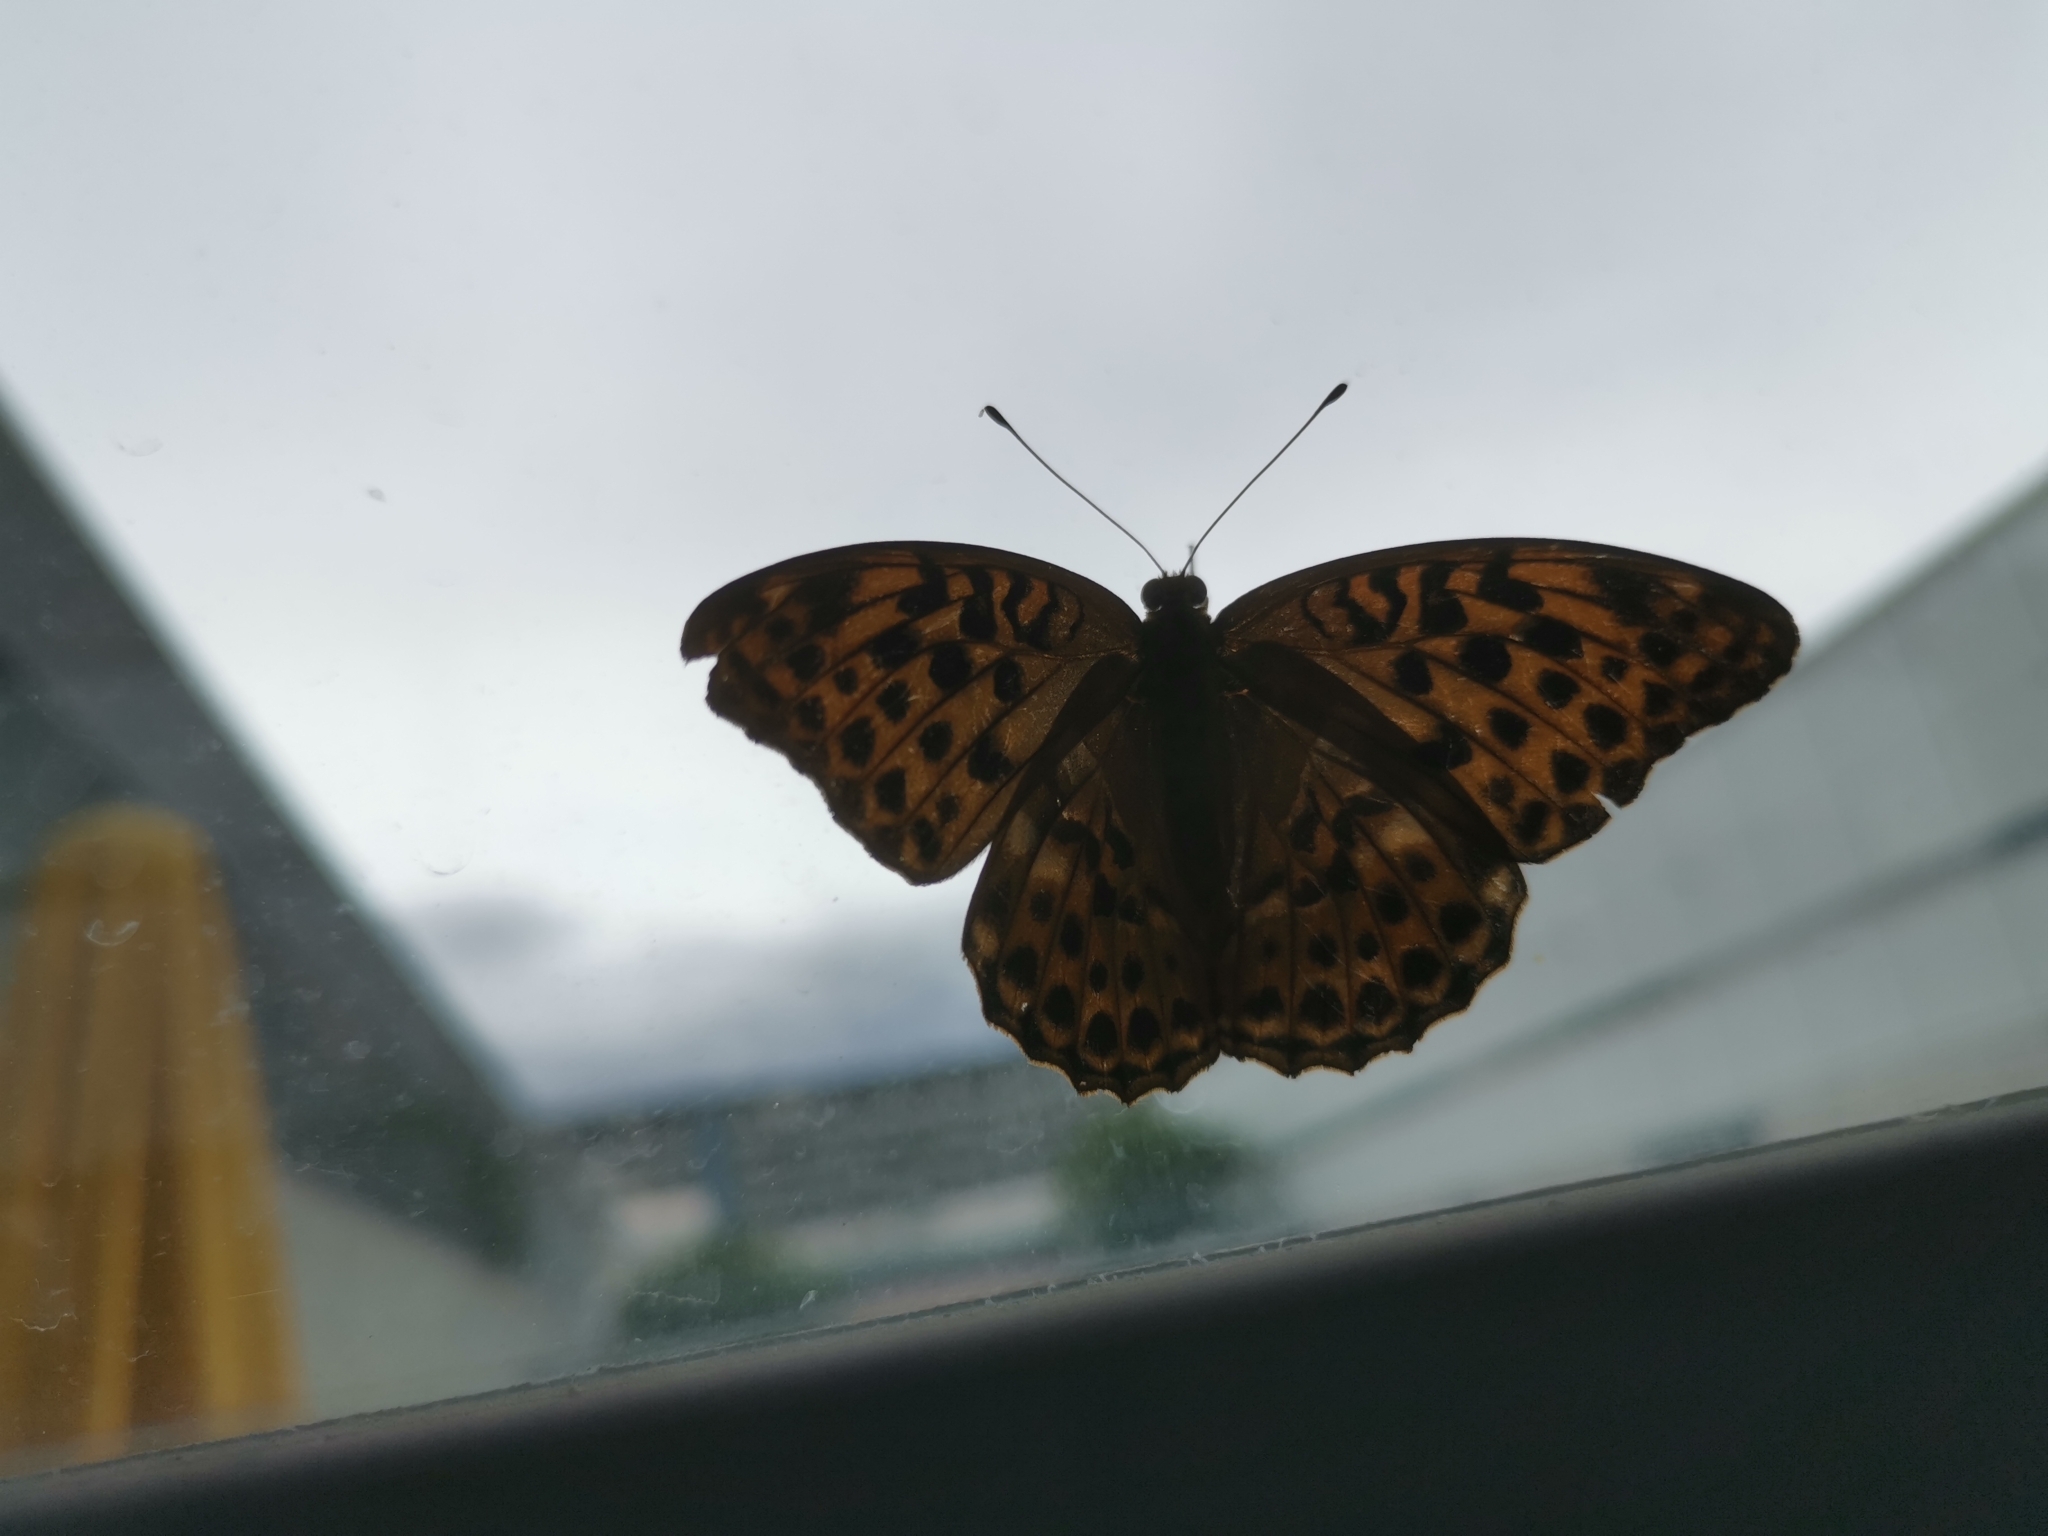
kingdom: Animalia
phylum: Arthropoda
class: Insecta
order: Lepidoptera
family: Nymphalidae
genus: Argynnis
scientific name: Argynnis paphia
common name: Silver-washed fritillary
